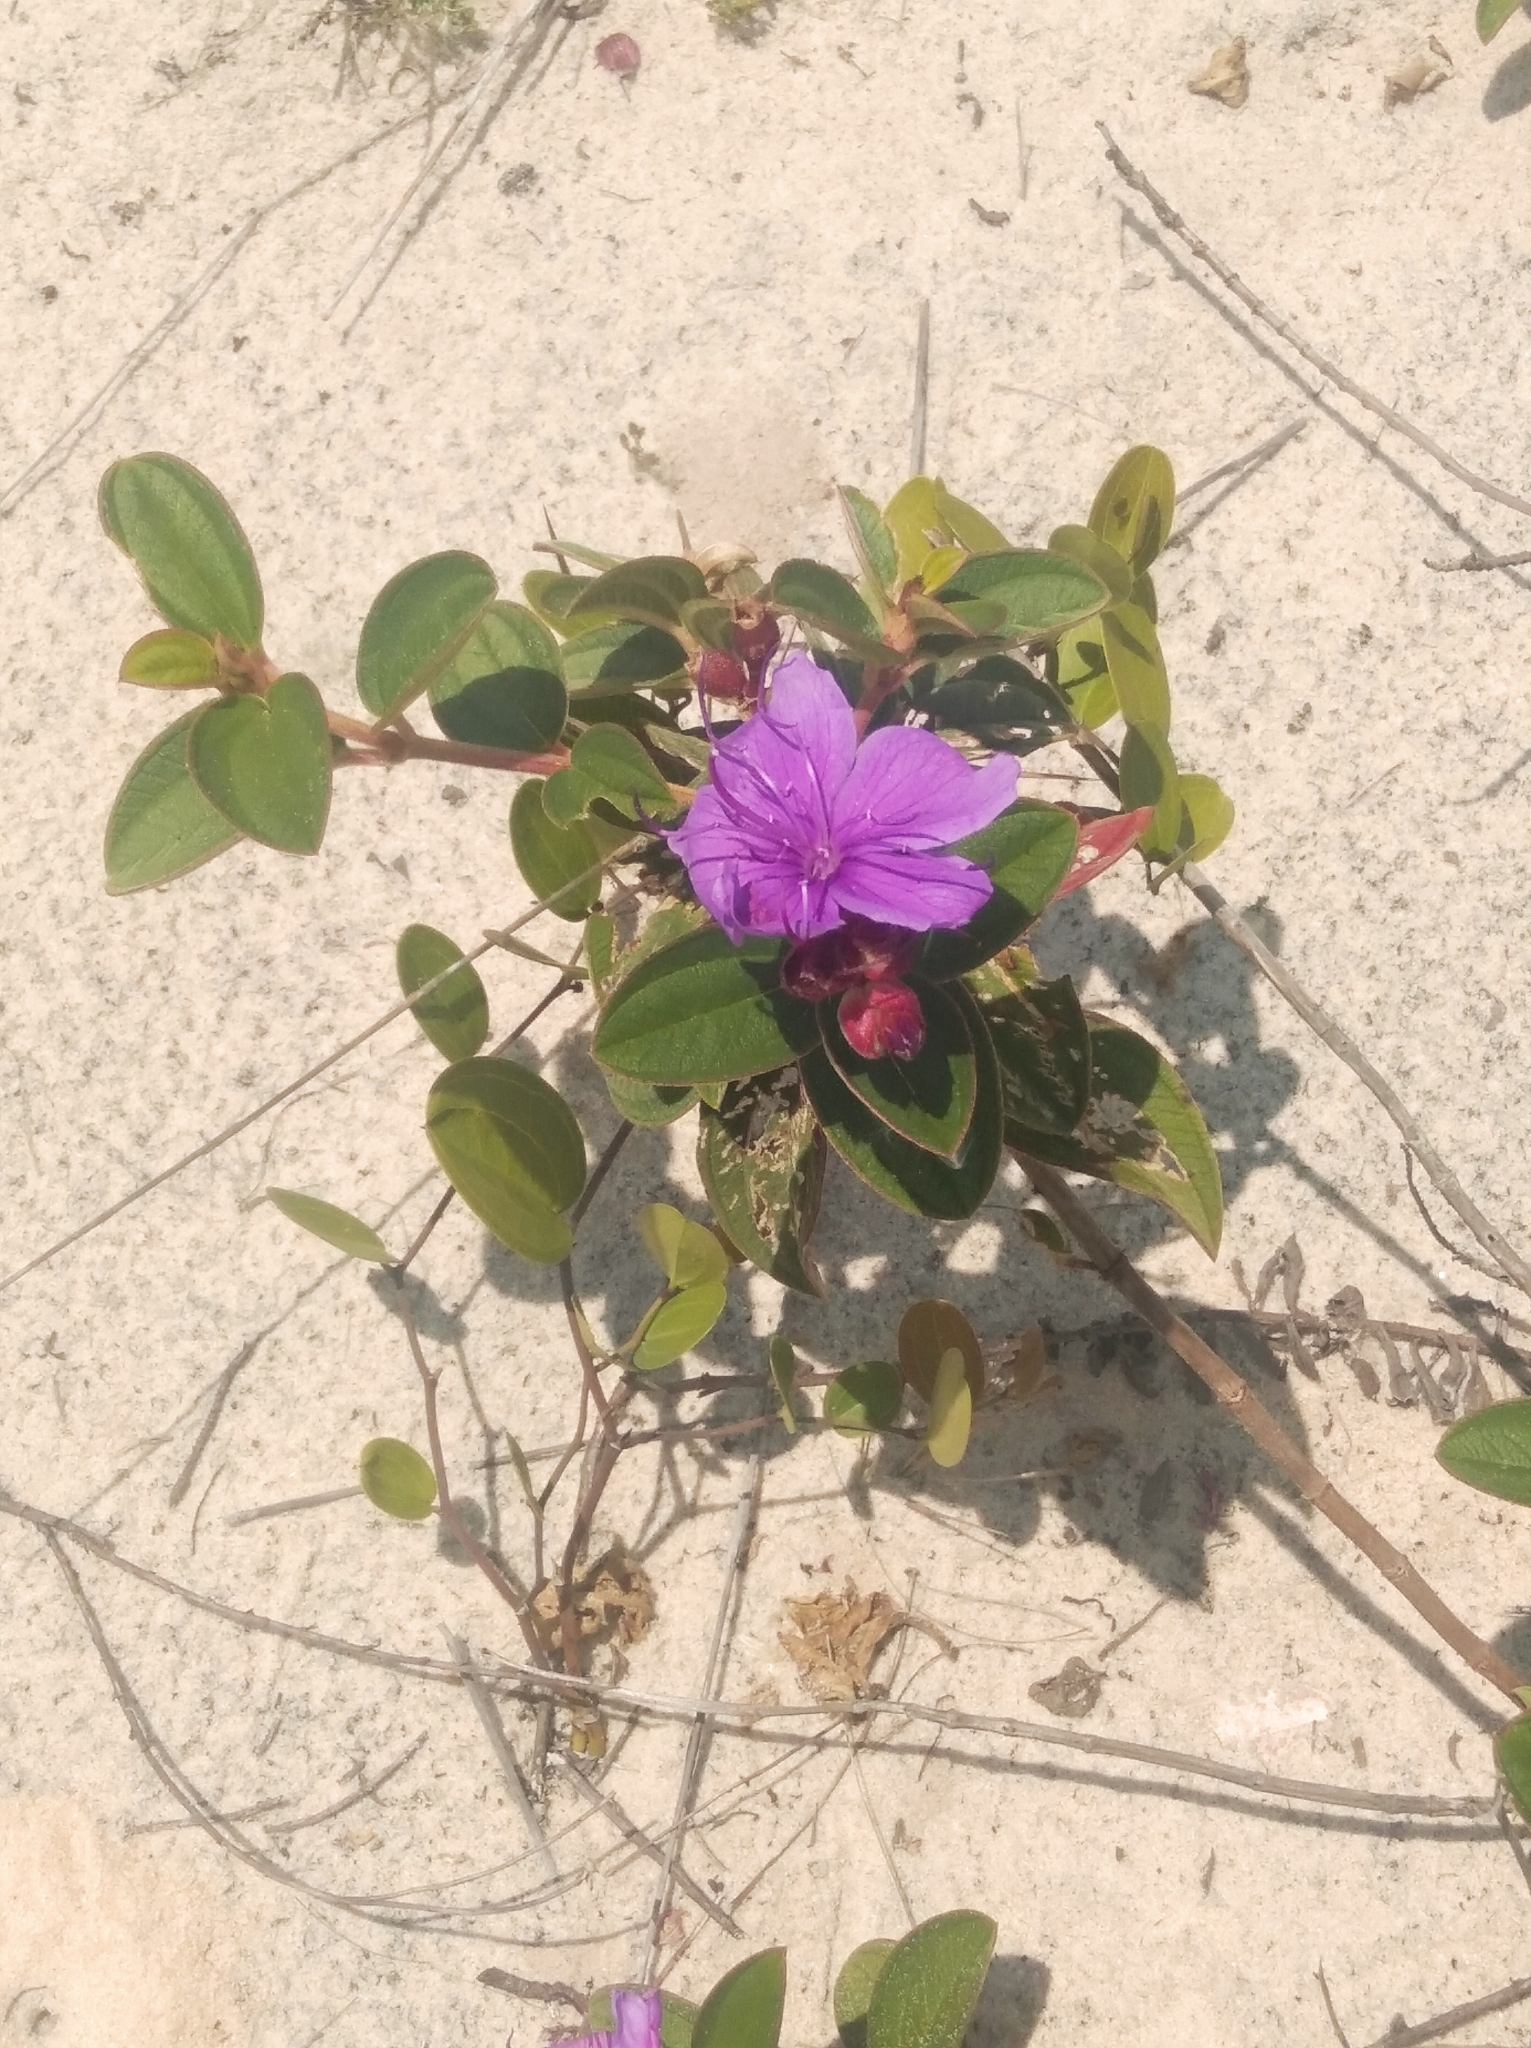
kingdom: Plantae
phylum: Tracheophyta
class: Magnoliopsida
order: Myrtales
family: Melastomataceae
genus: Pleroma
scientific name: Pleroma urvilleanum
